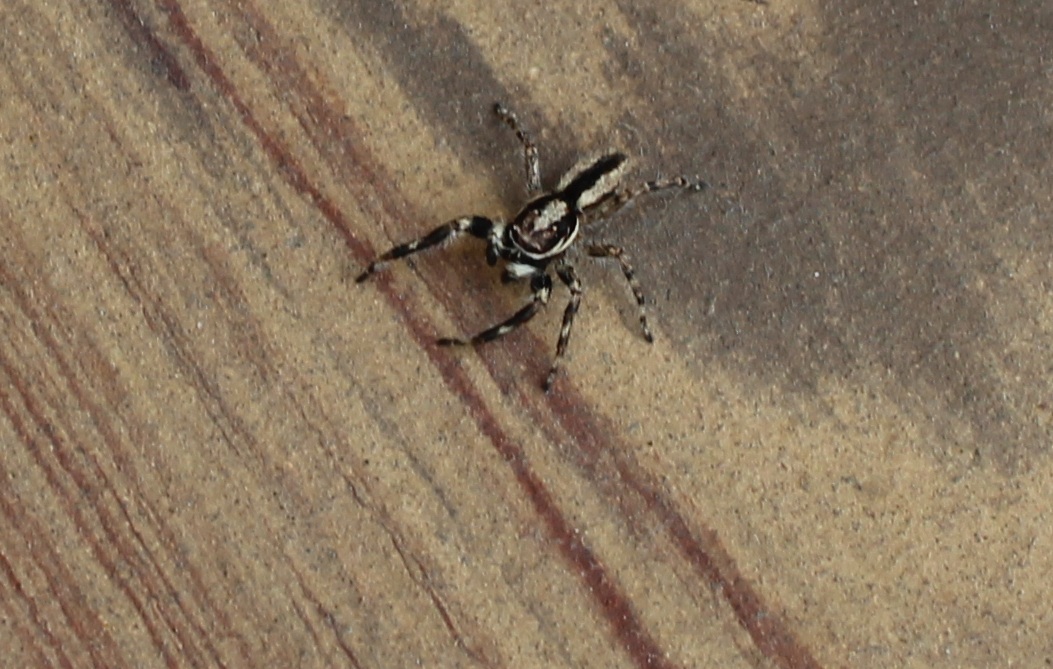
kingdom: Animalia
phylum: Arthropoda
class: Arachnida
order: Araneae
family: Salticidae
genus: Menemerus
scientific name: Menemerus bivittatus
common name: Gray wall jumper
